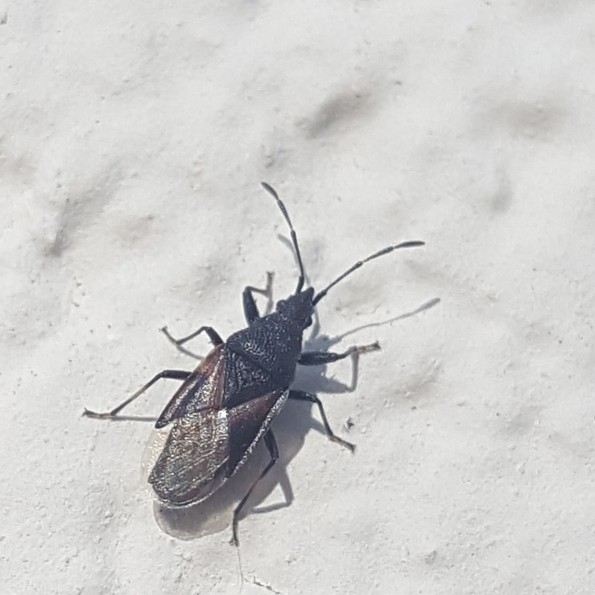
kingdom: Animalia
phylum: Arthropoda
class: Insecta
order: Hemiptera
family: Oxycarenidae
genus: Oxycarenus
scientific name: Oxycarenus lavaterae
